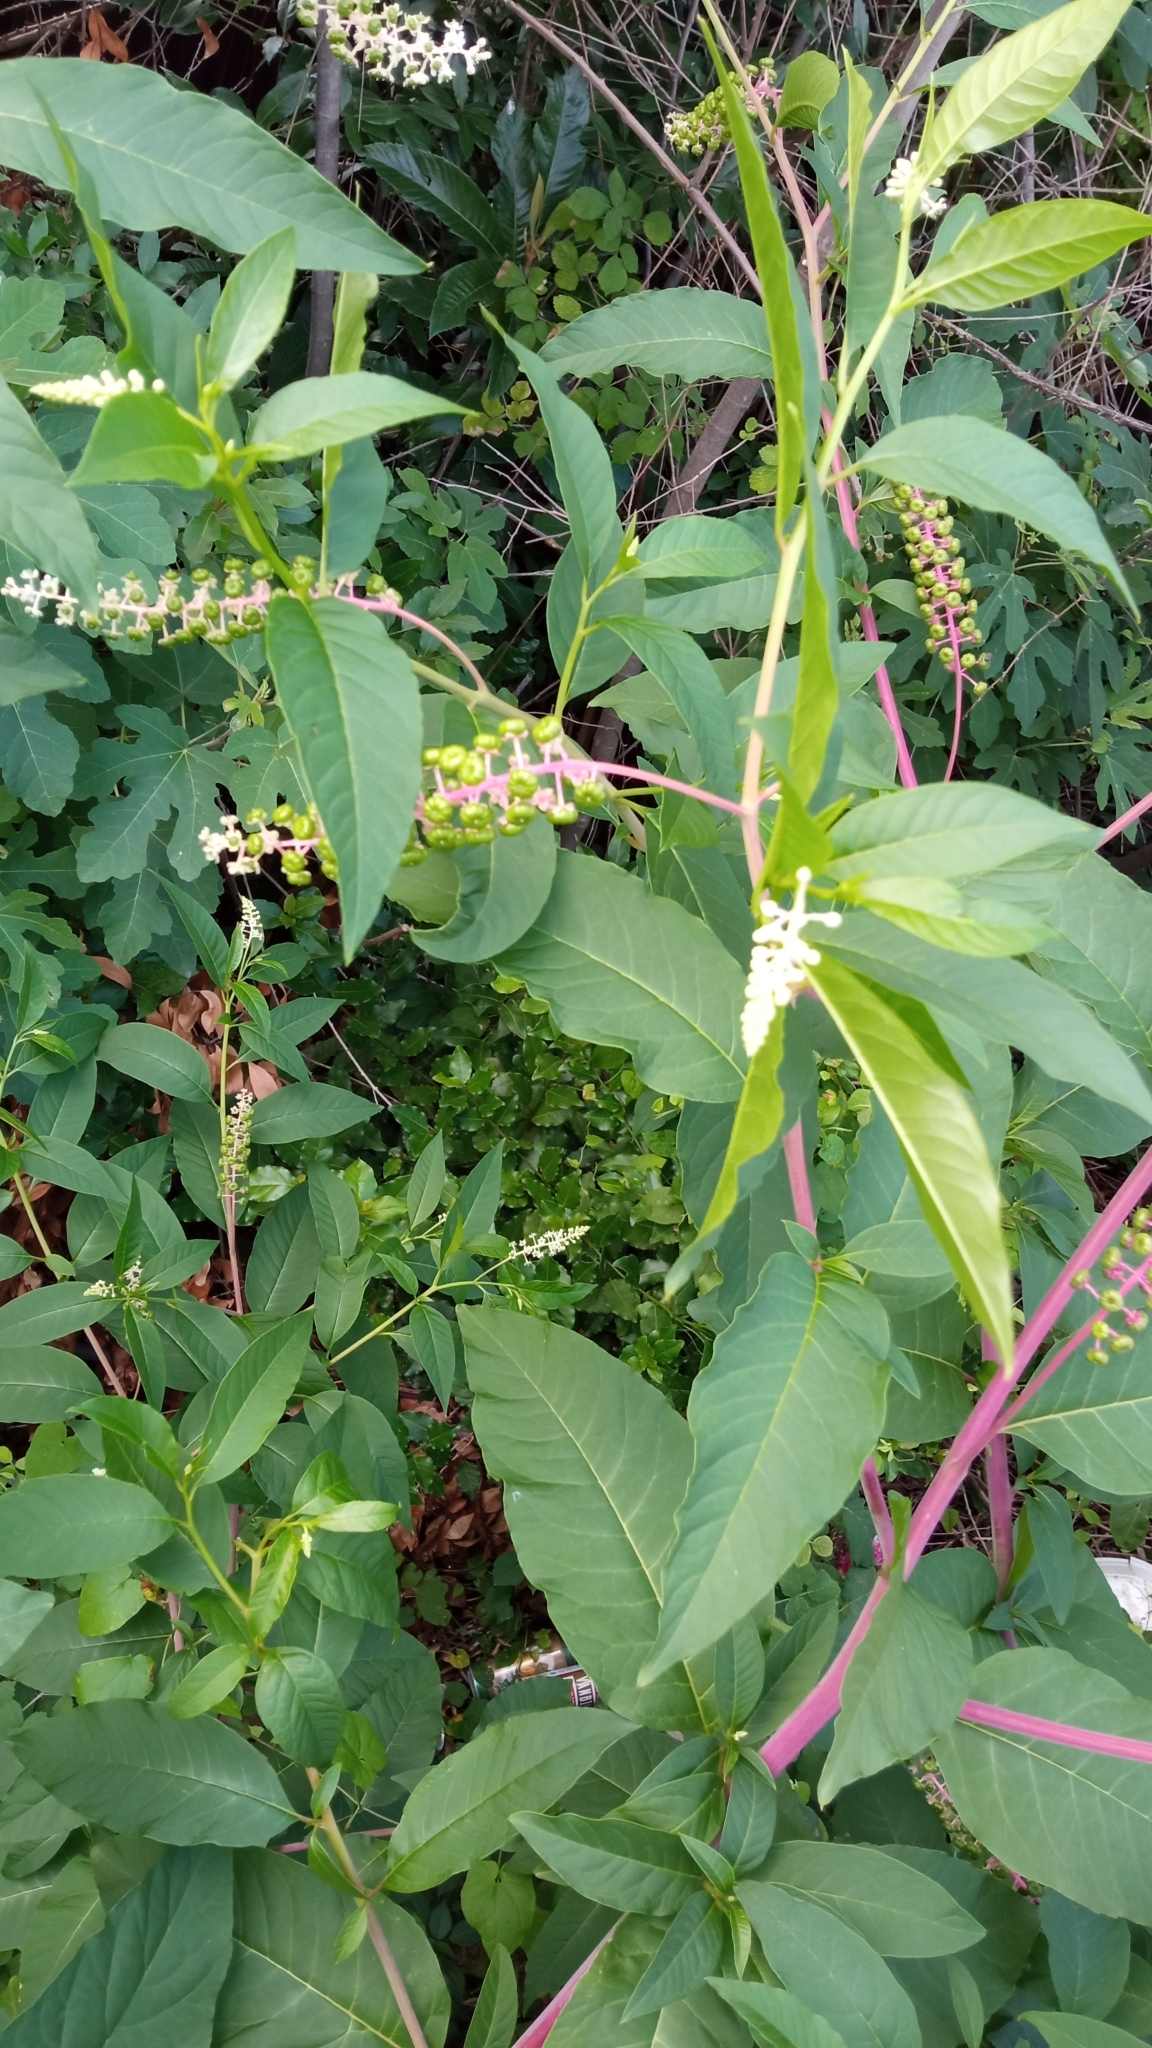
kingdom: Plantae
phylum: Tracheophyta
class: Magnoliopsida
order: Caryophyllales
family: Phytolaccaceae
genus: Phytolacca
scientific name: Phytolacca americana
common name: American pokeweed
